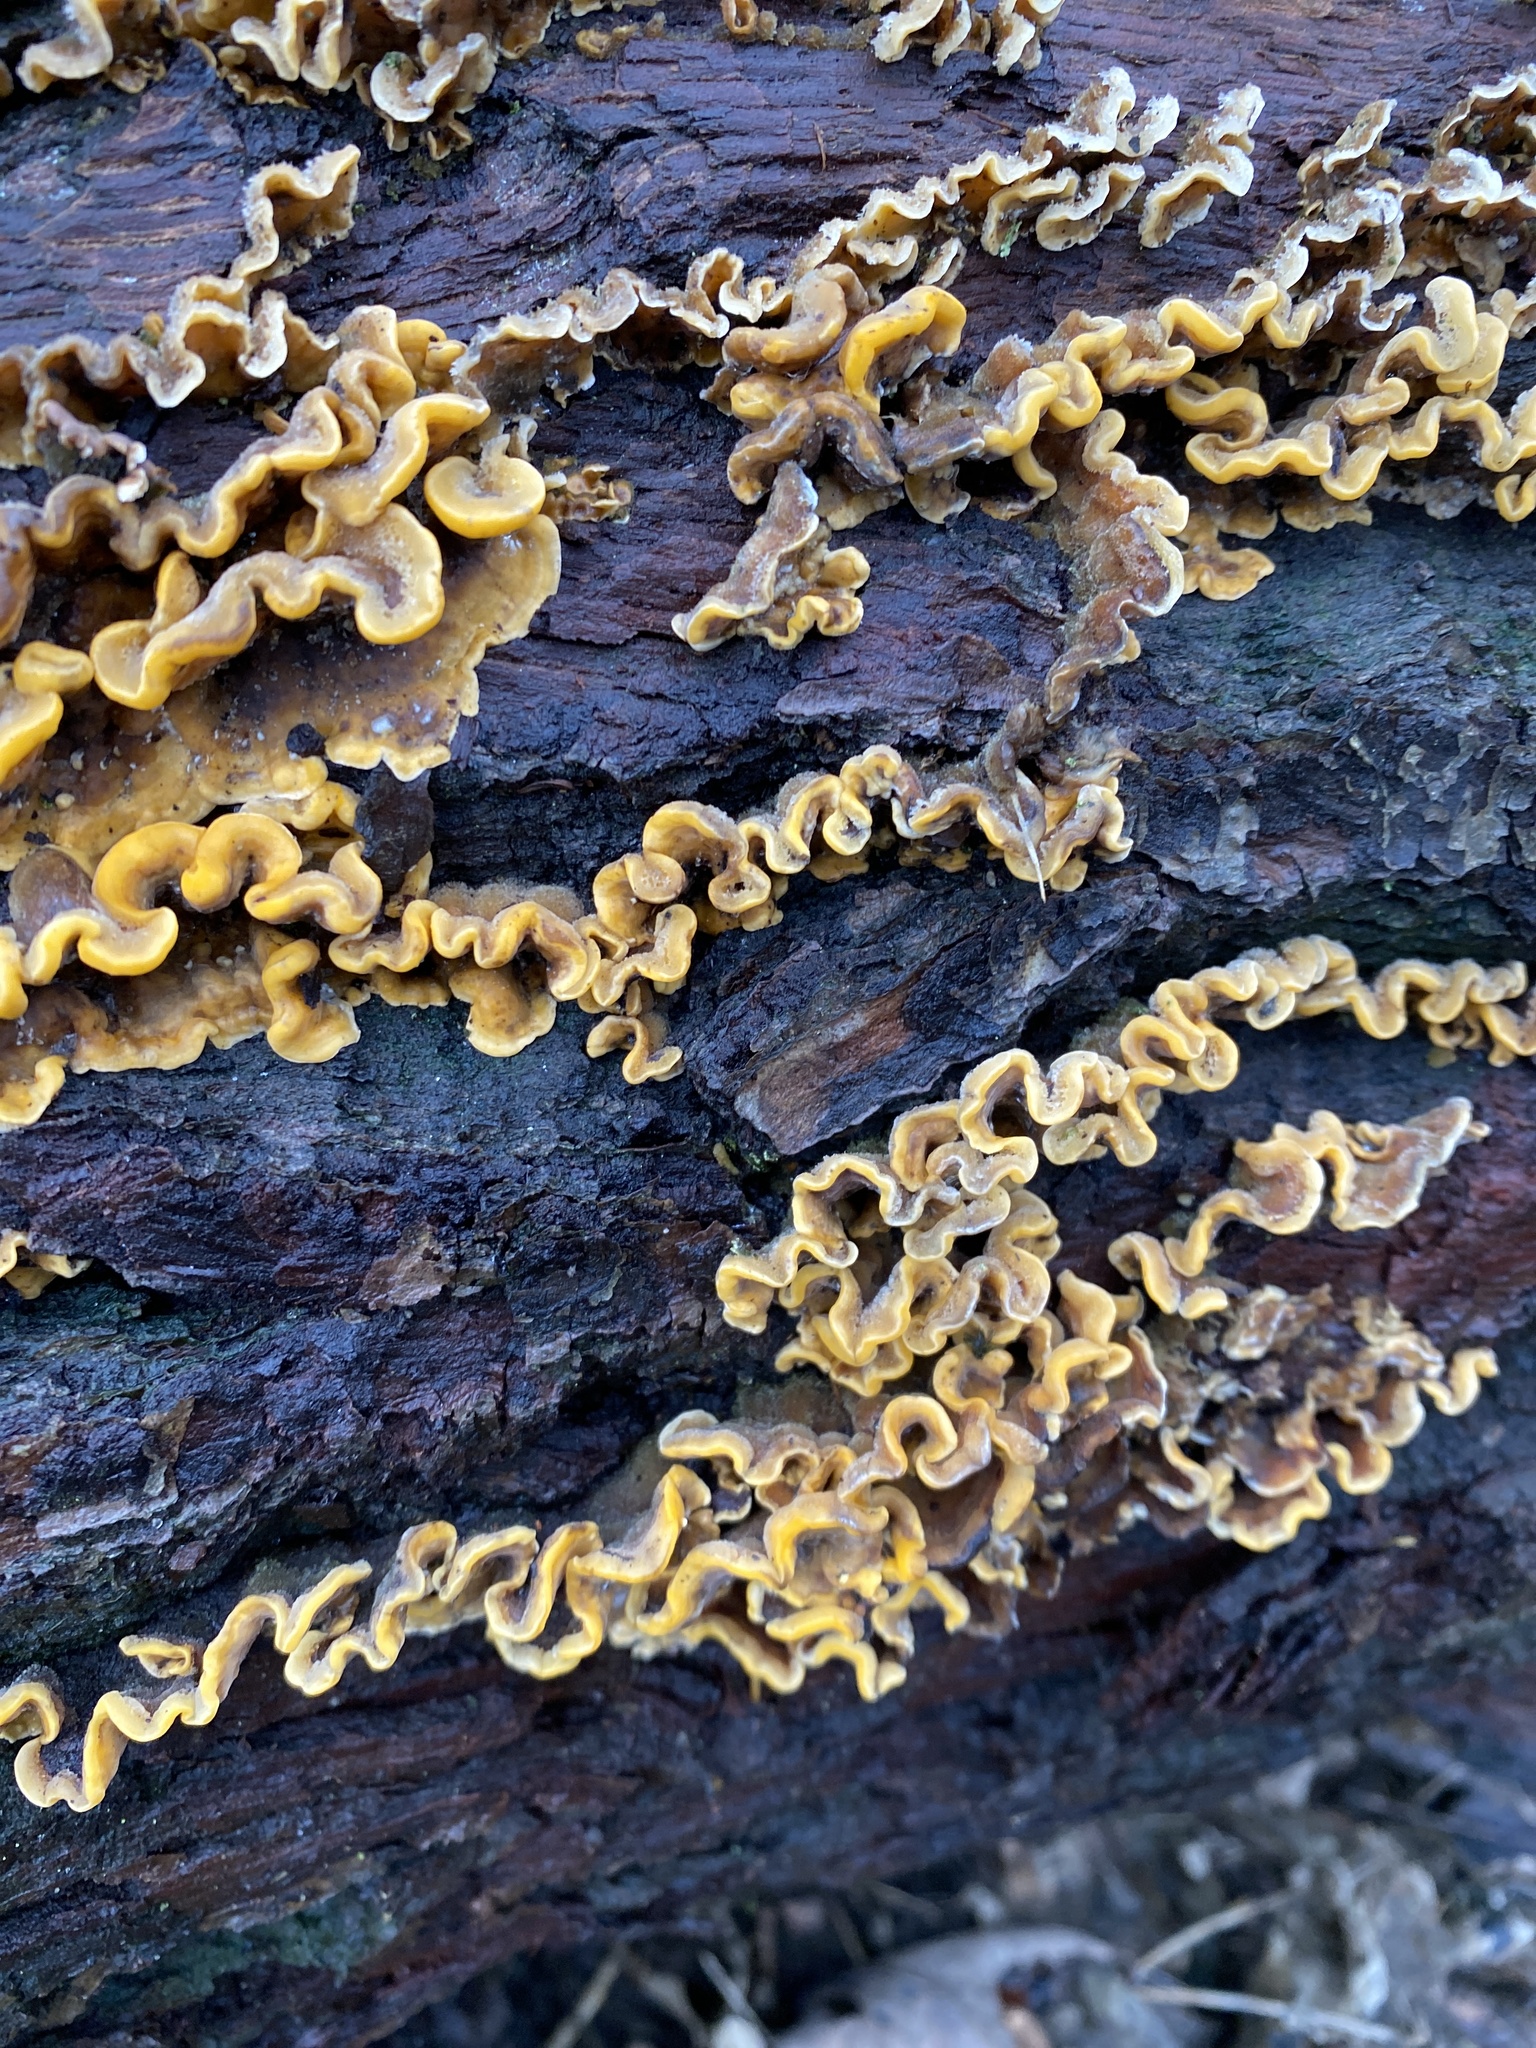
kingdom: Fungi
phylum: Basidiomycota
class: Agaricomycetes
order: Russulales
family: Stereaceae
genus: Stereum
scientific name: Stereum hirsutum
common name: Hairy curtain crust
